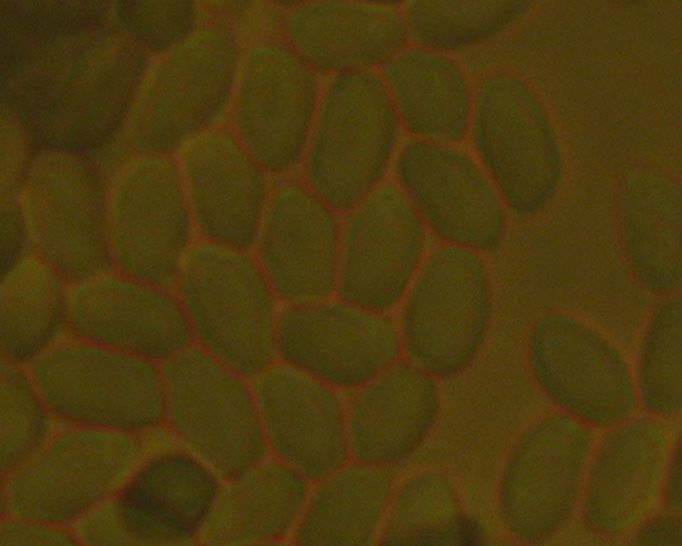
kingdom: Fungi
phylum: Basidiomycota
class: Agaricomycetes
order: Agaricales
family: Physalacriaceae
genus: Flammulina
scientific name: Flammulina velutipes
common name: Velvet shank
